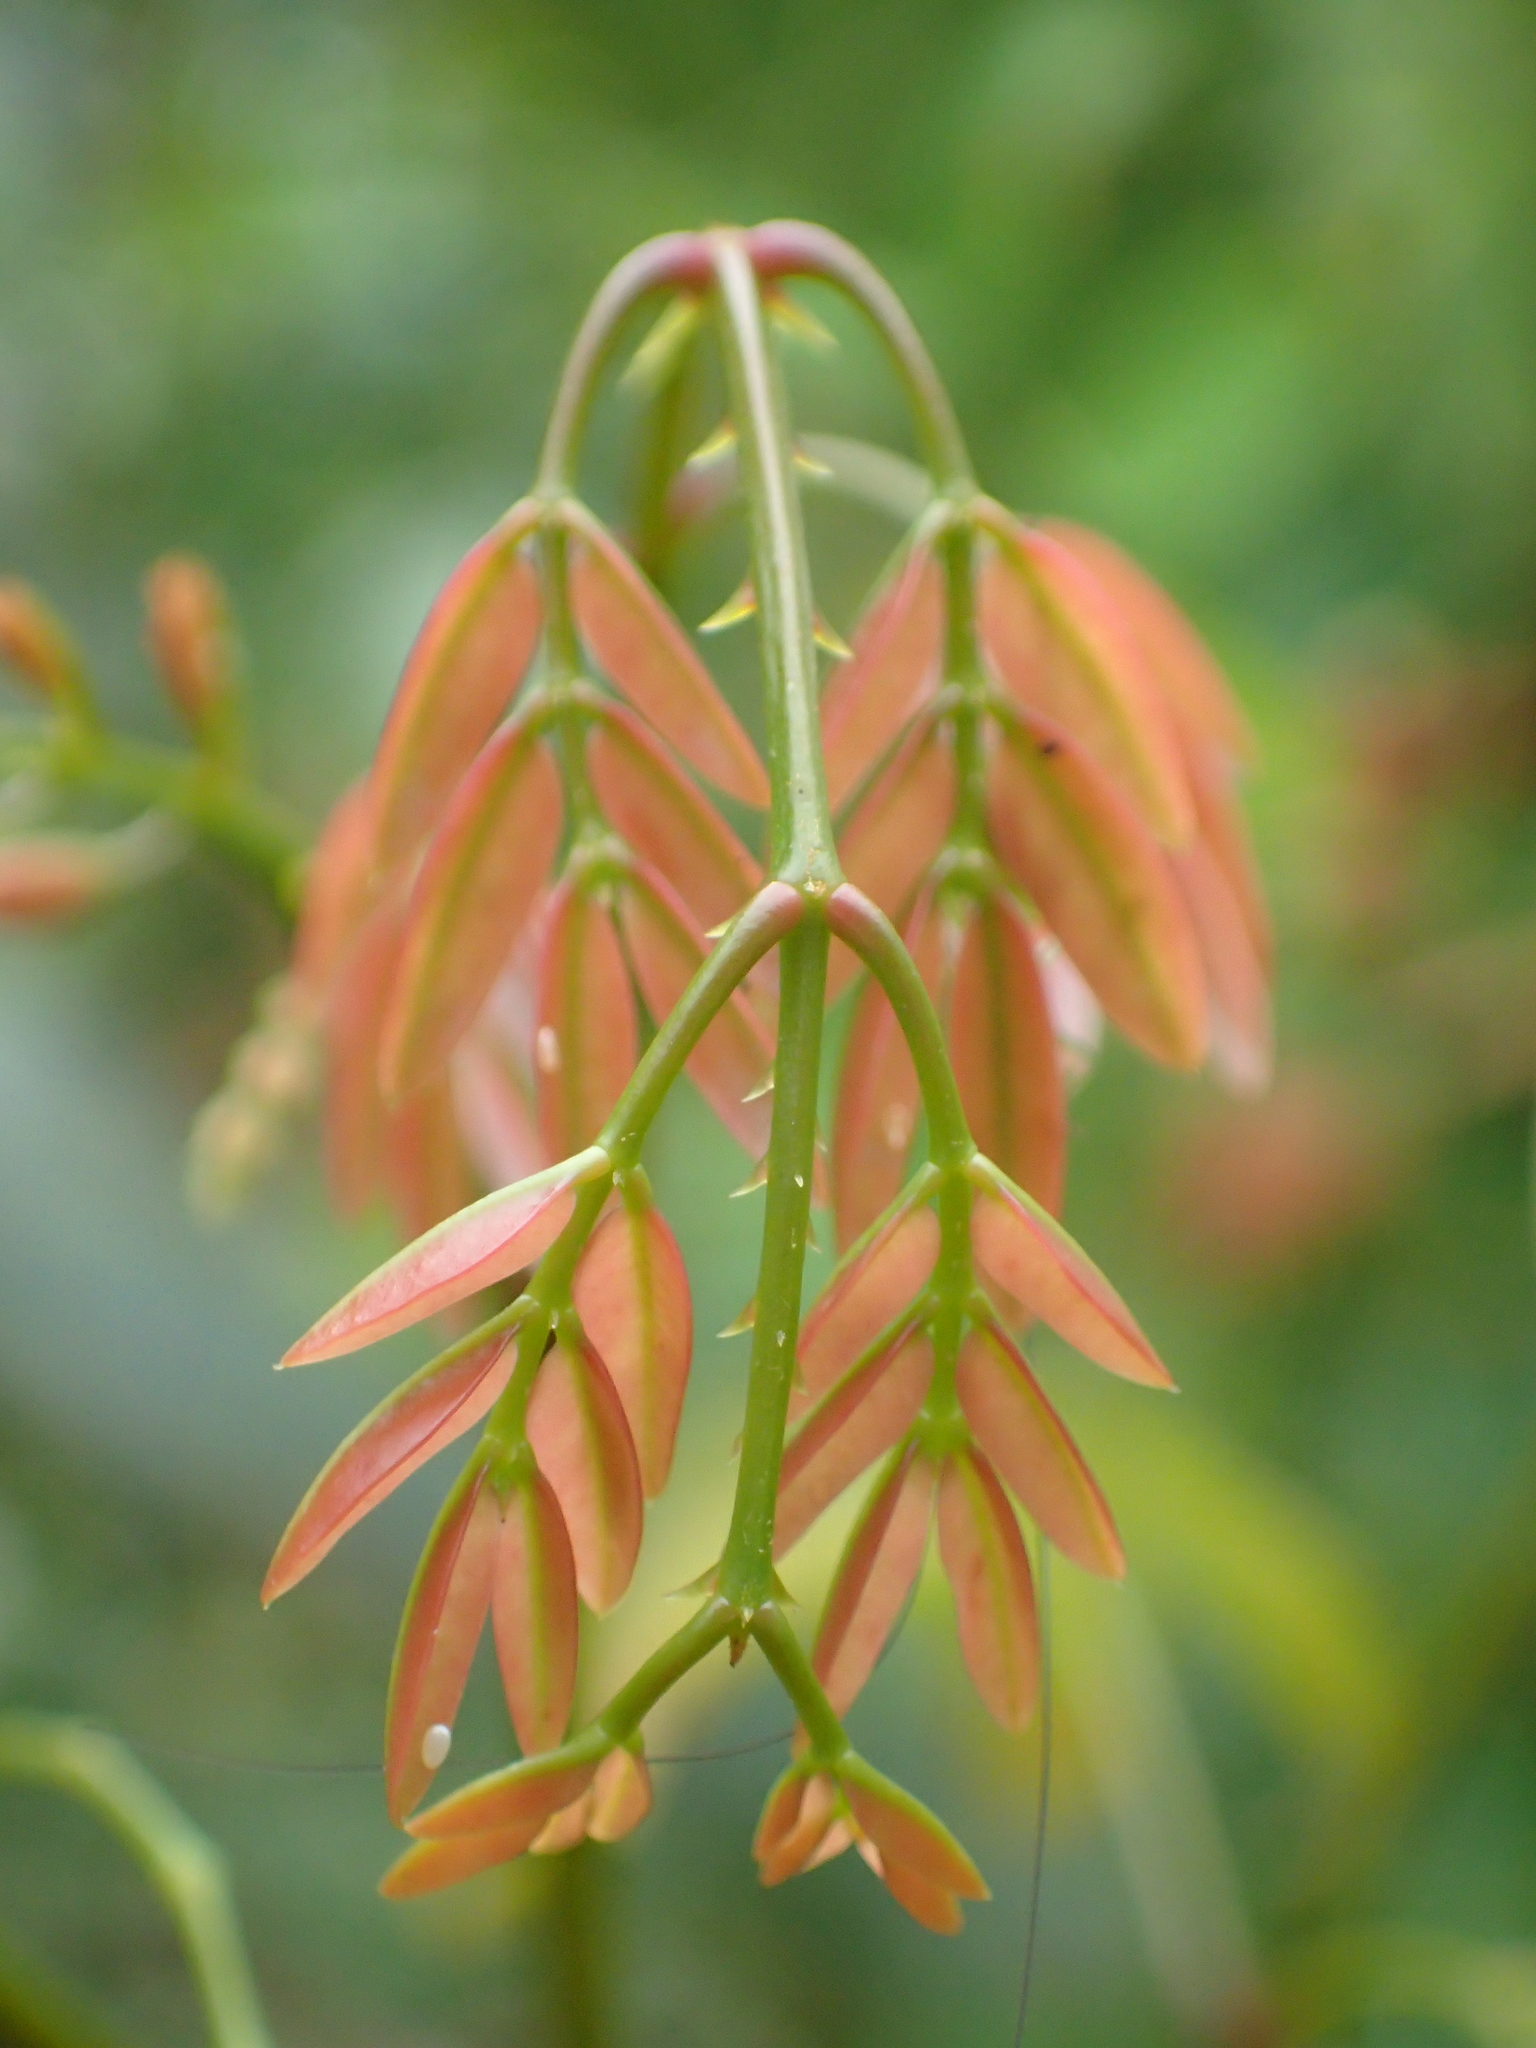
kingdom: Plantae
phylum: Tracheophyta
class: Magnoliopsida
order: Fabales
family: Fabaceae
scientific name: Fabaceae
